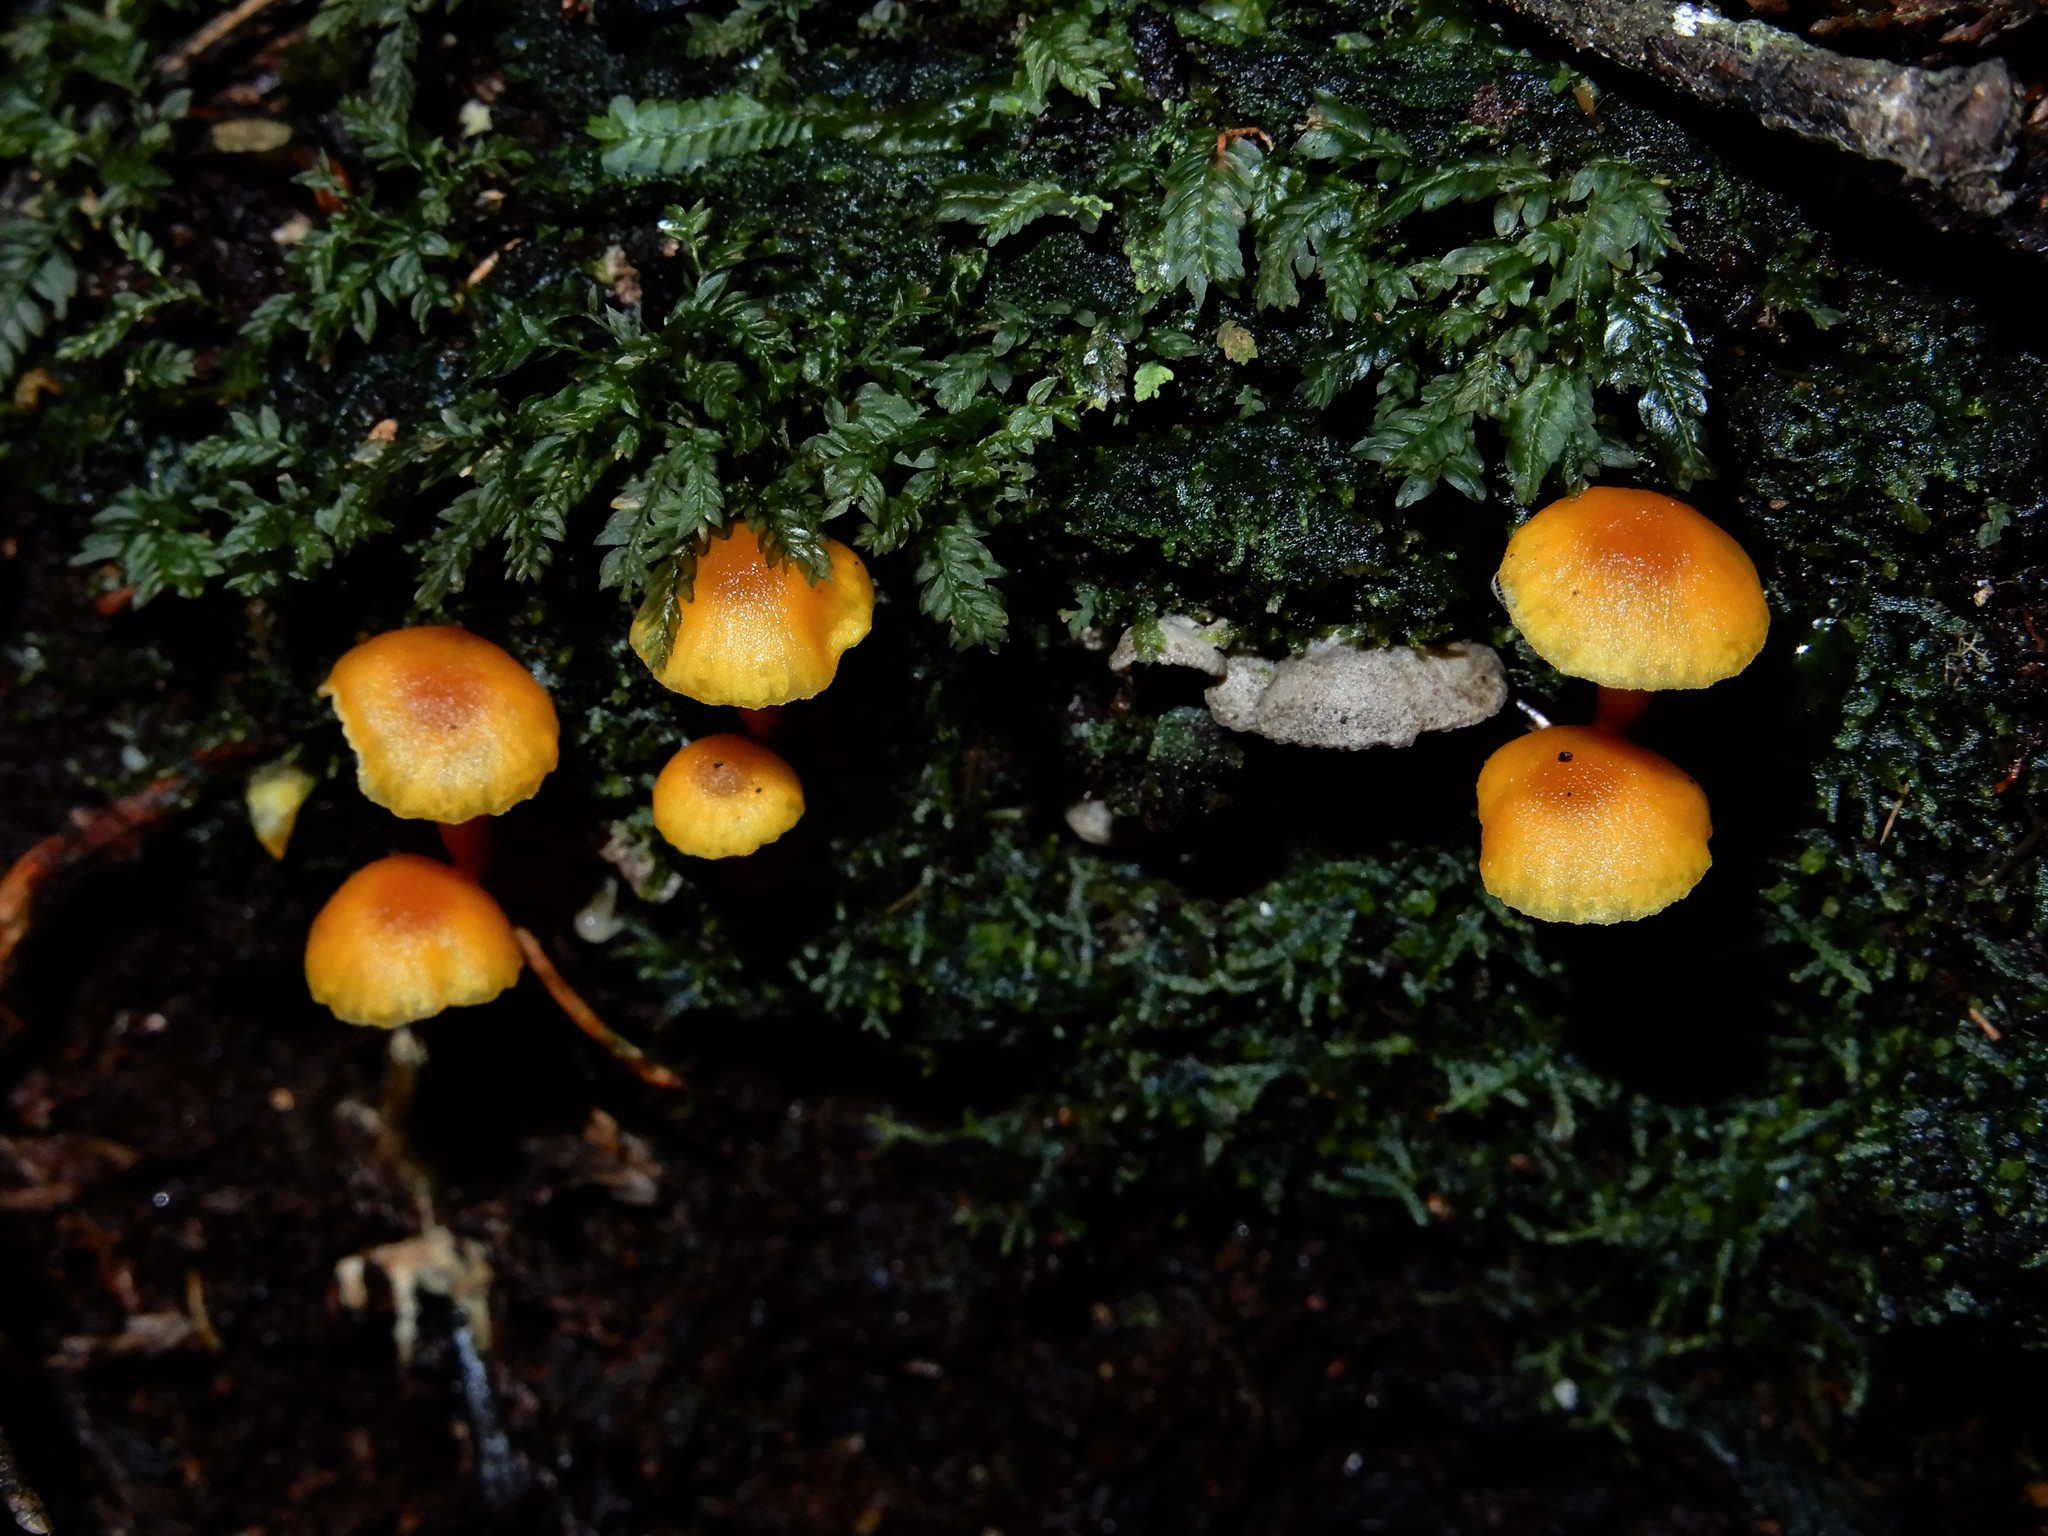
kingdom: Fungi
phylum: Basidiomycota
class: Agaricomycetes
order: Agaricales
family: Hygrophoraceae
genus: Hygrocybe
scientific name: Hygrocybe
